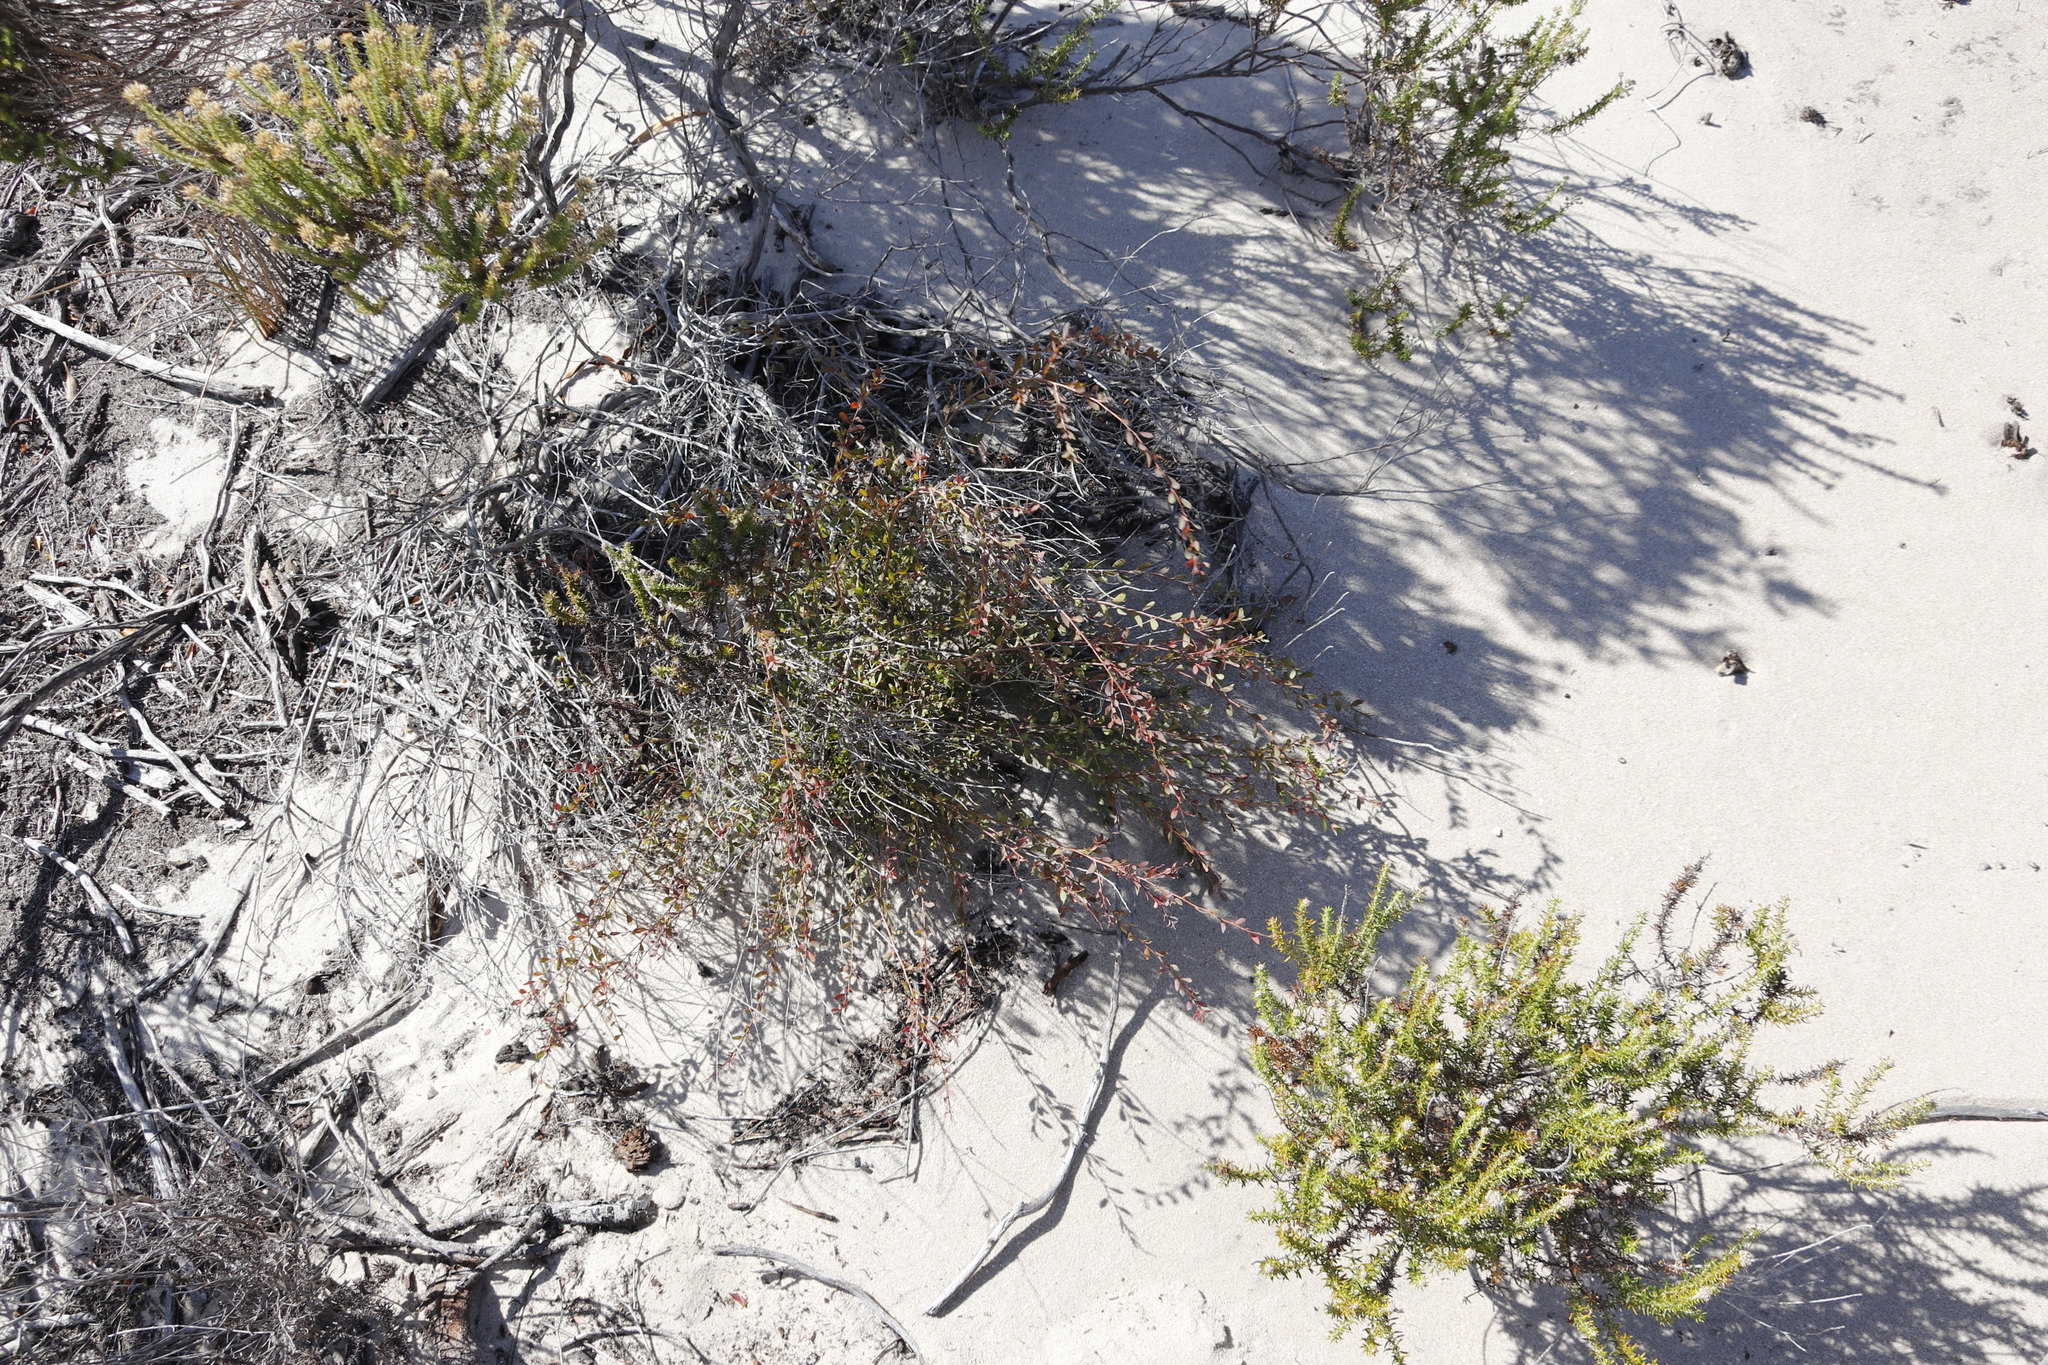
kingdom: Plantae
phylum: Tracheophyta
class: Magnoliopsida
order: Myrtales
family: Myrtaceae
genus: Leptospermum
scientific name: Leptospermum laevigatum
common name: Australian teatree
